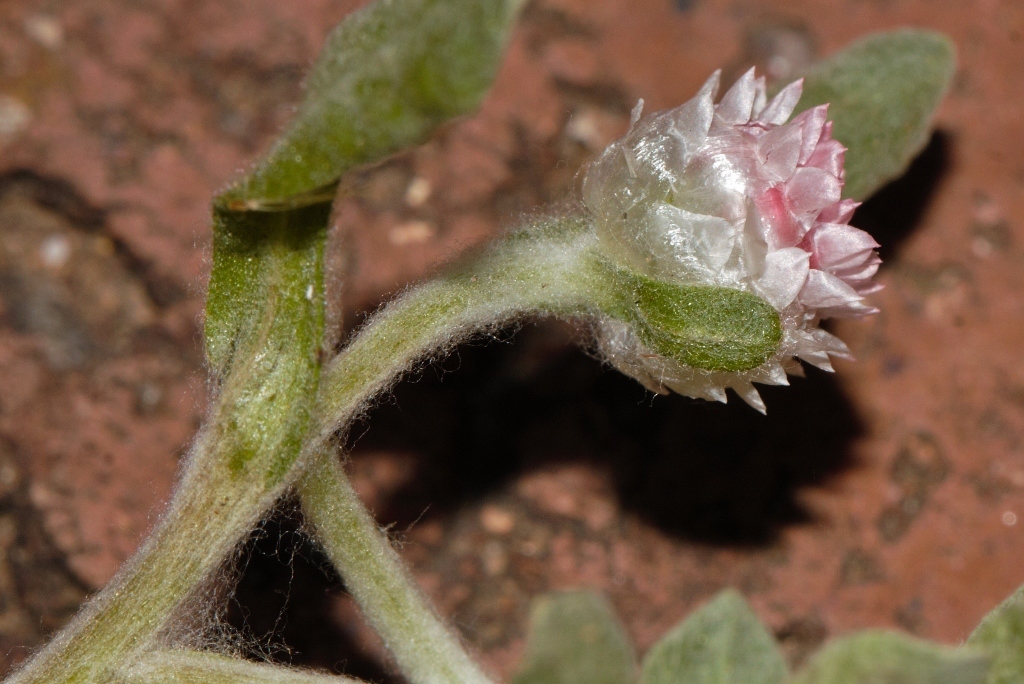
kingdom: Plantae
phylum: Tracheophyta
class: Magnoliopsida
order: Asterales
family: Asteraceae
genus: Helichrysum
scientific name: Helichrysum argyrosphaerum
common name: Wild everlasting
